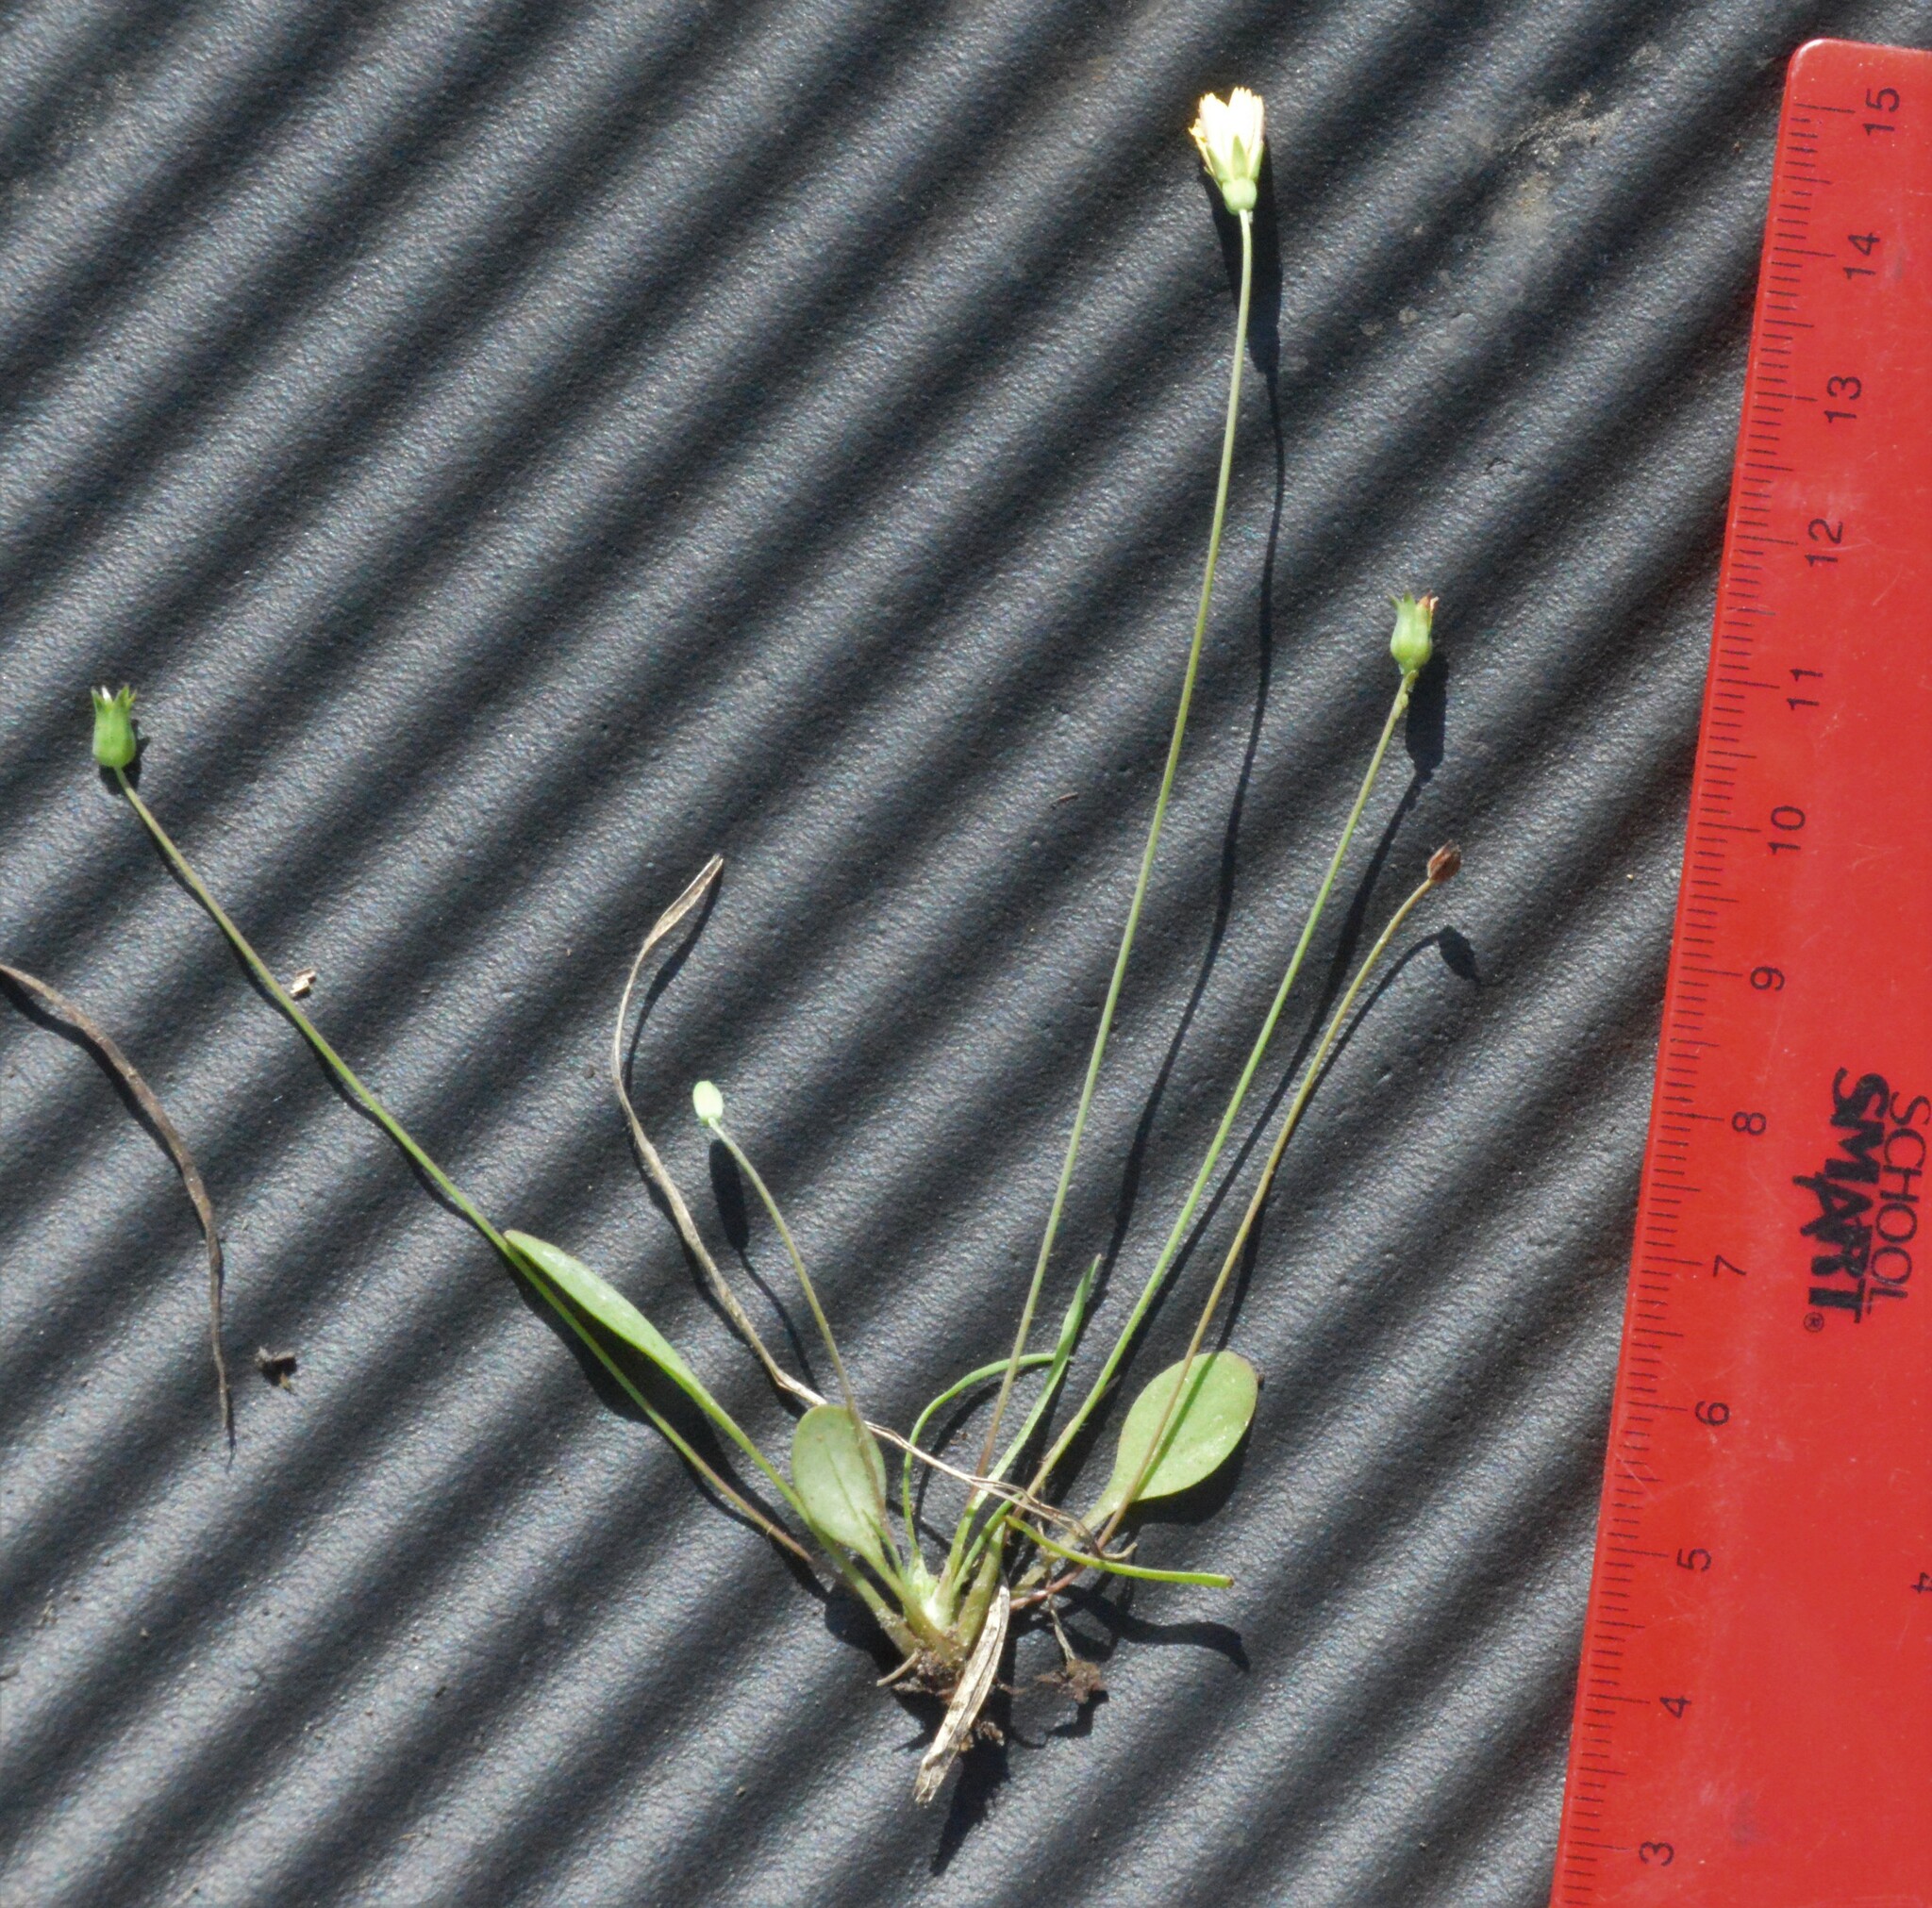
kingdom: Plantae
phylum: Tracheophyta
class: Magnoliopsida
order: Asterales
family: Asteraceae
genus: Krigia
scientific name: Krigia occidentalis
